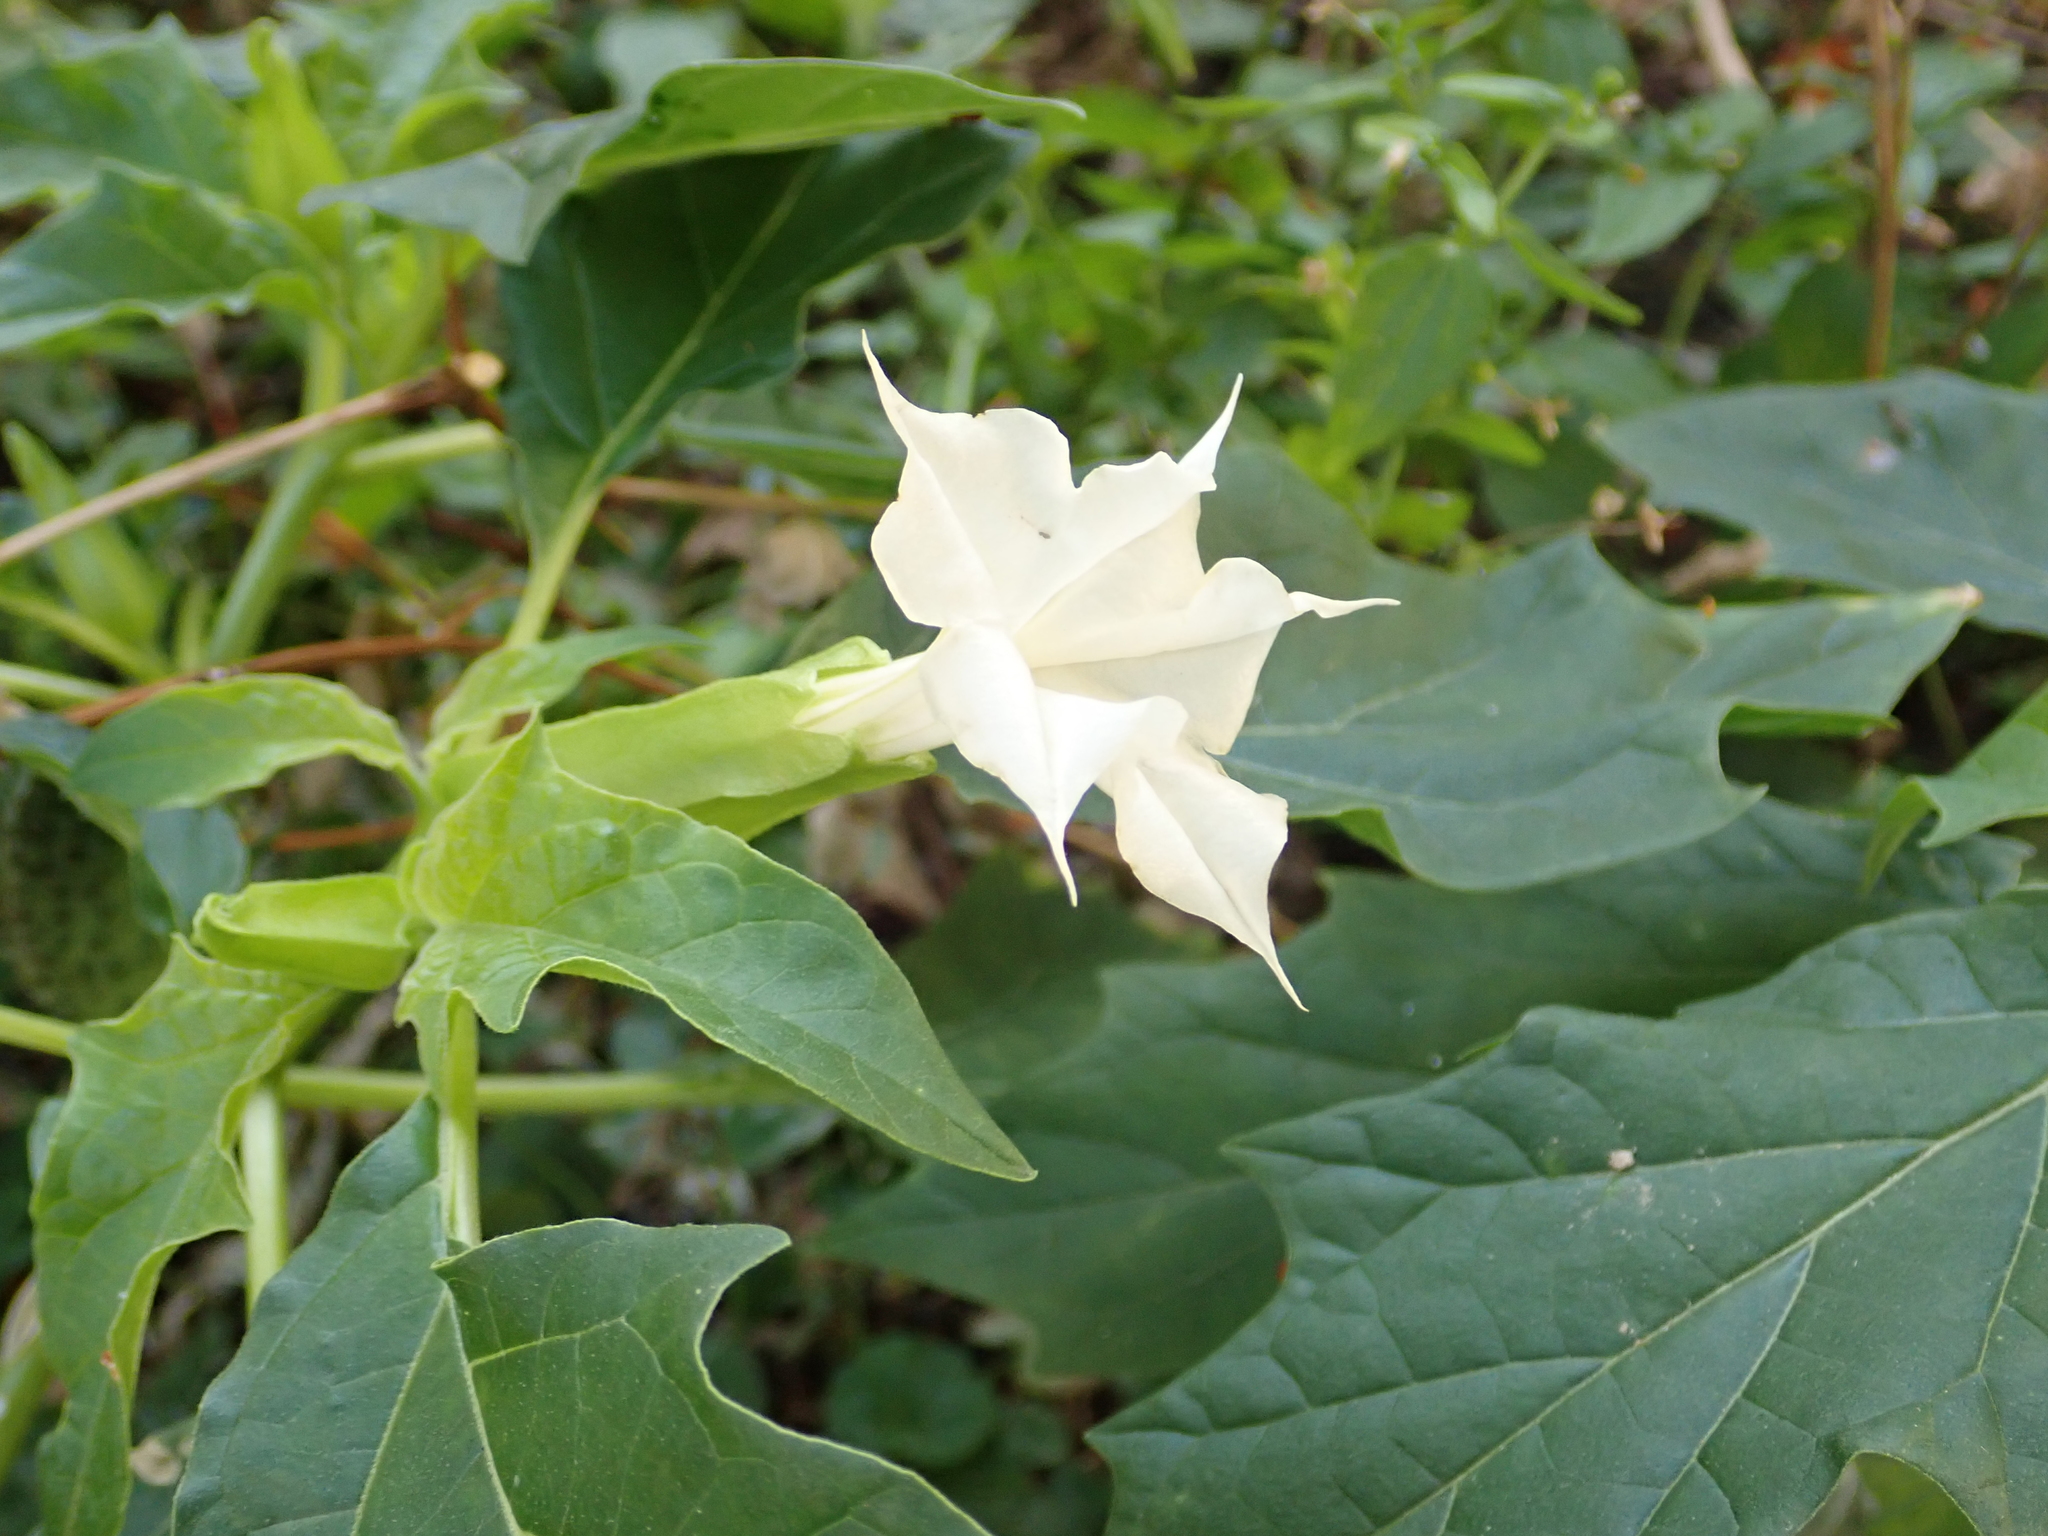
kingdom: Plantae
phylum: Tracheophyta
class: Magnoliopsida
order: Solanales
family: Solanaceae
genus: Datura
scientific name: Datura stramonium
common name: Thorn-apple
